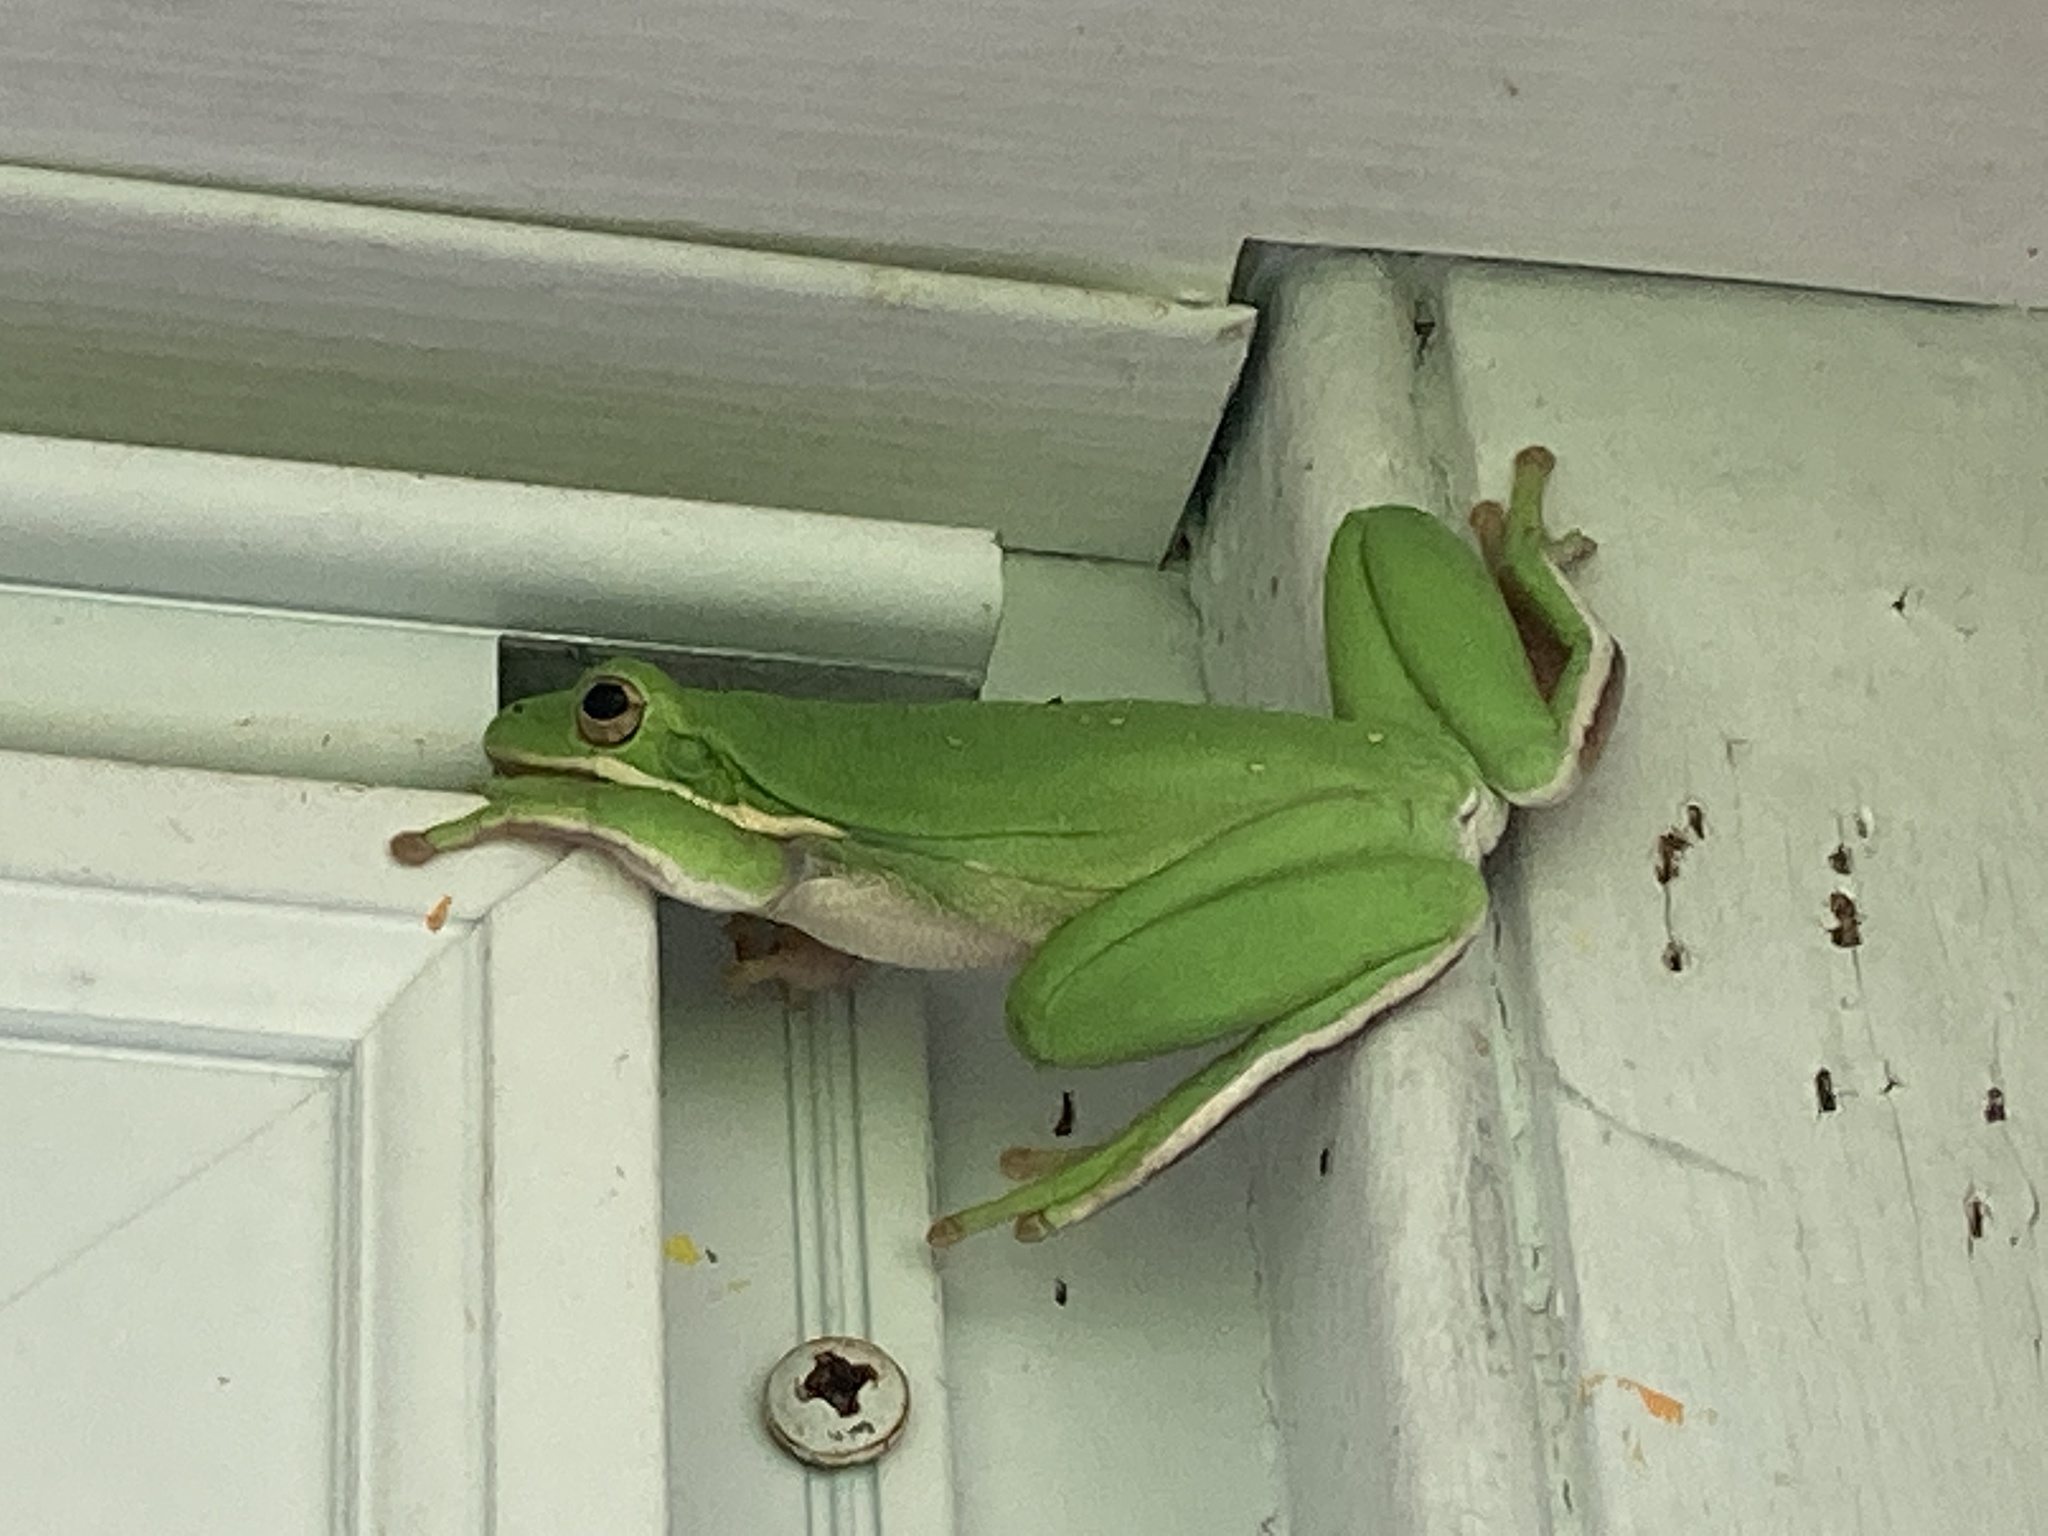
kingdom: Animalia
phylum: Chordata
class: Amphibia
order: Anura
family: Hylidae
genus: Dryophytes
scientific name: Dryophytes cinereus
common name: Green treefrog
